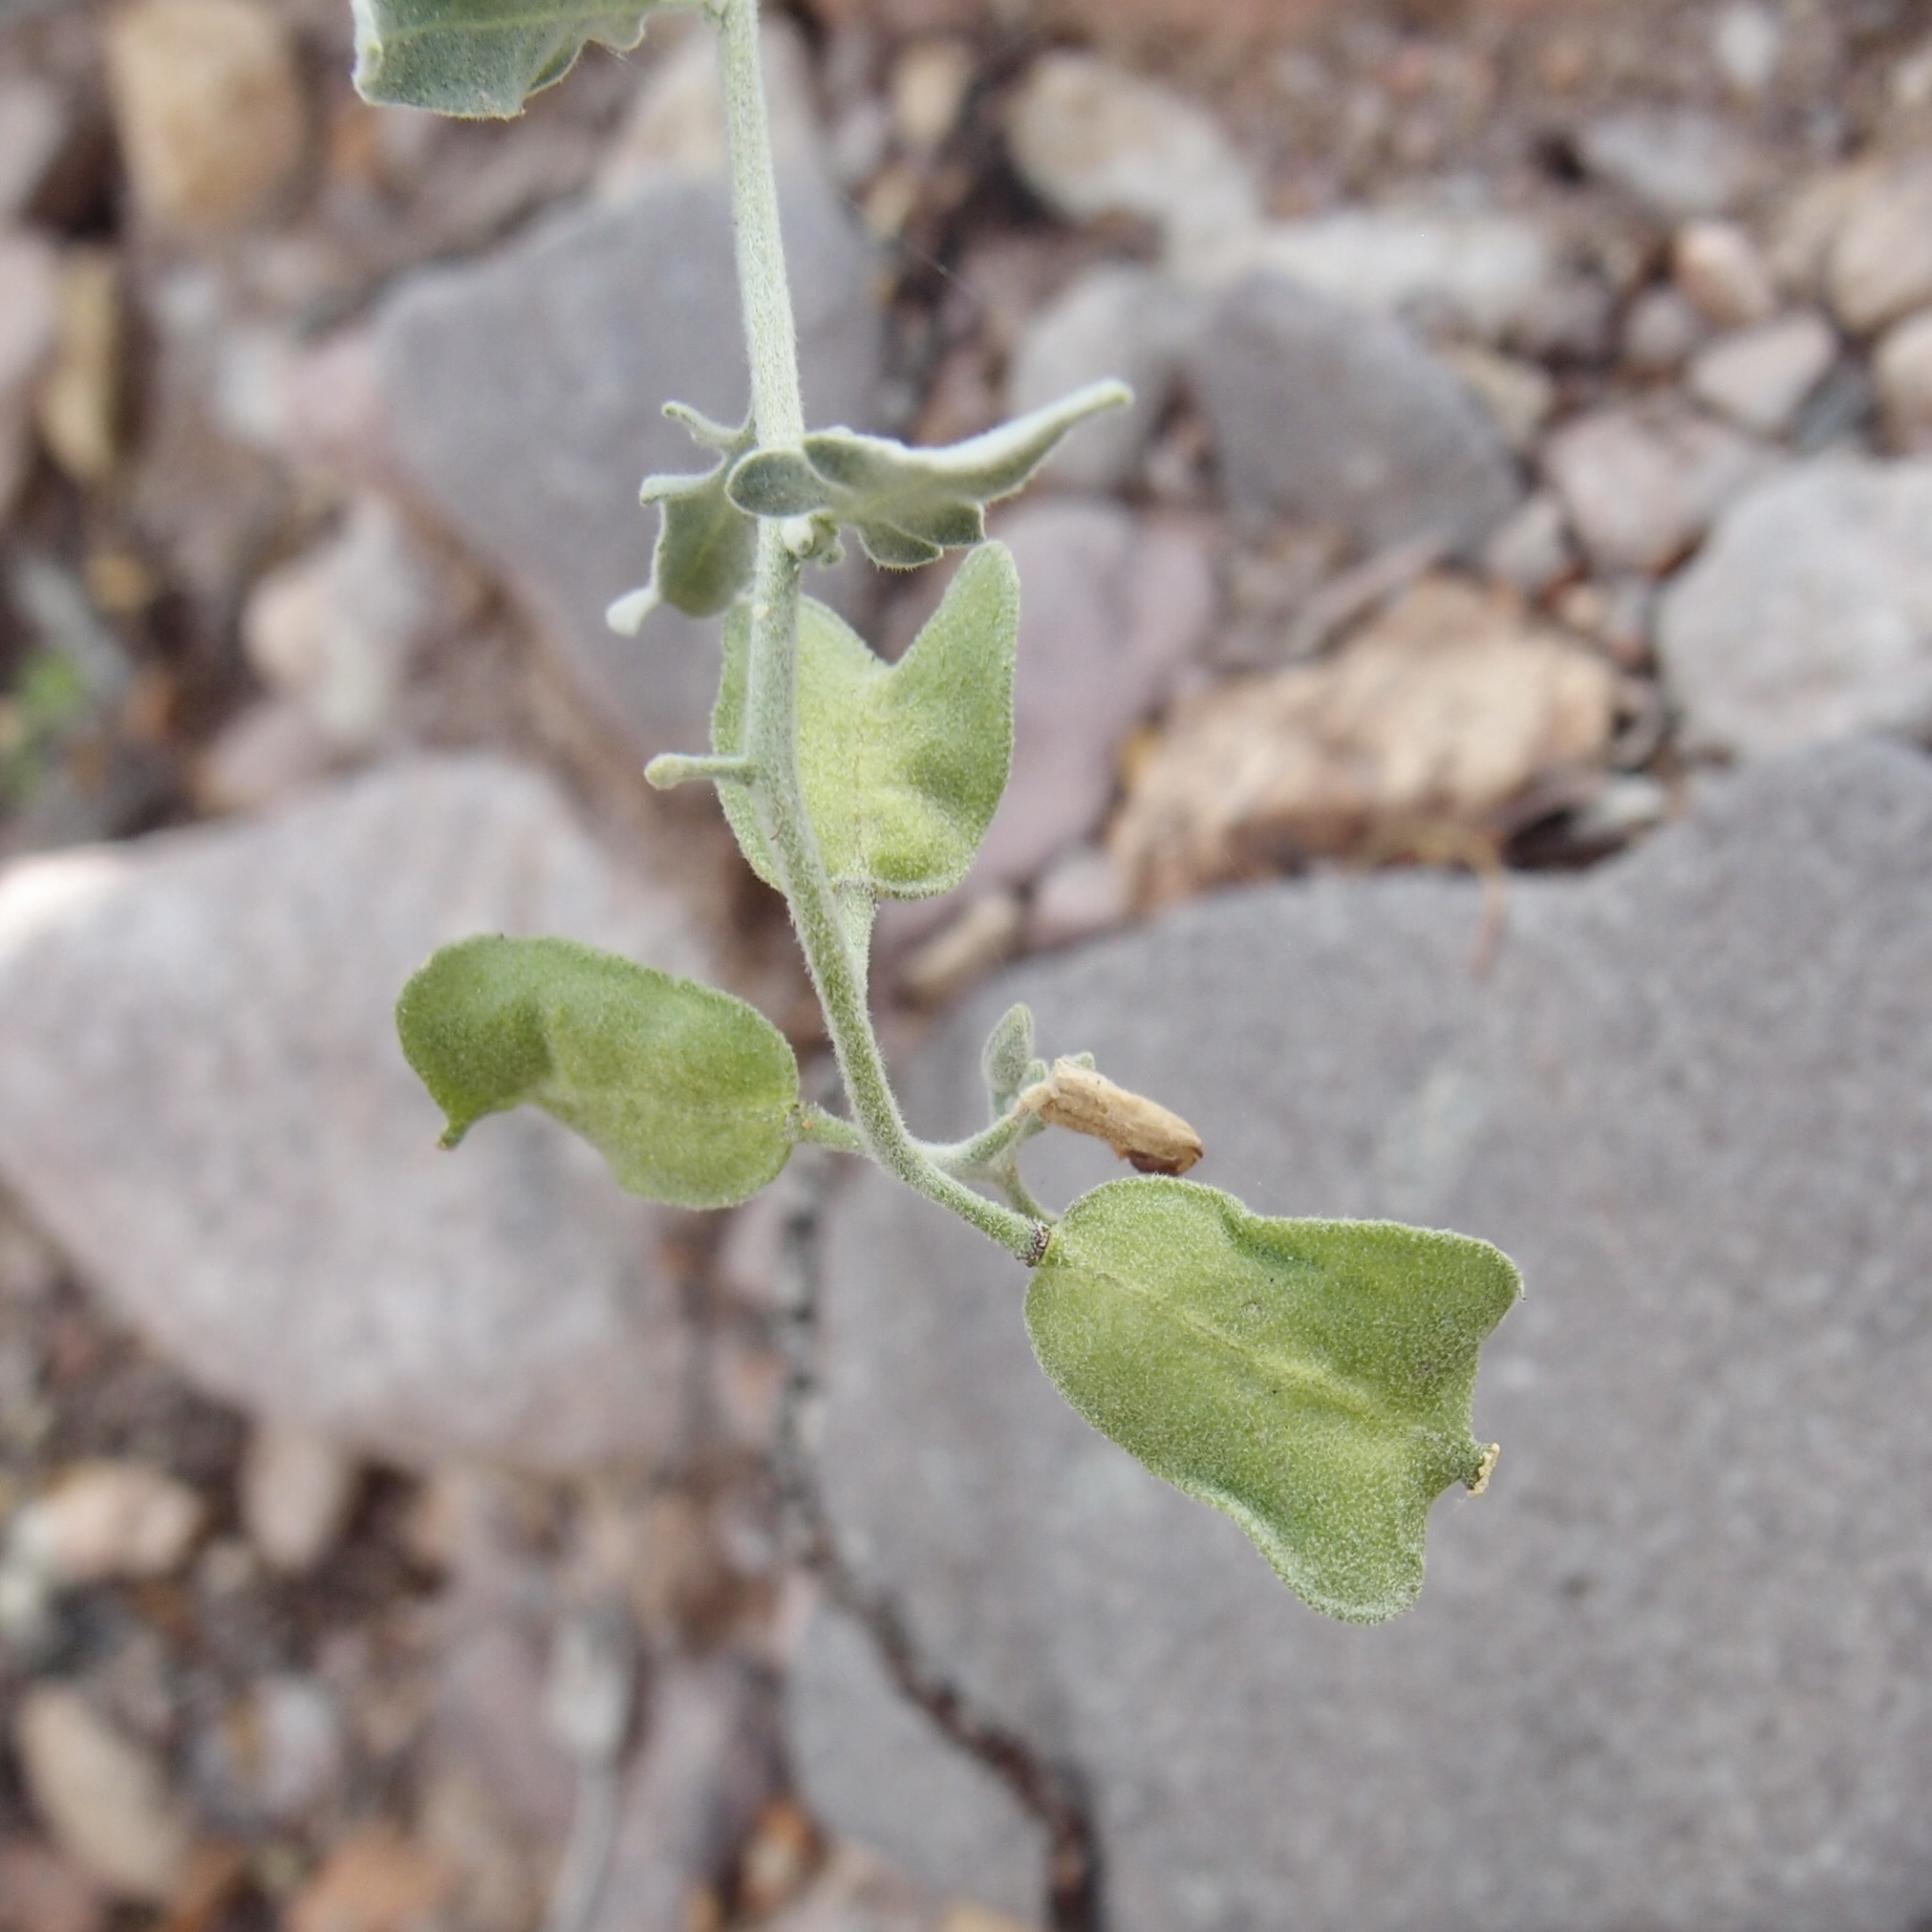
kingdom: Plantae
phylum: Tracheophyta
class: Magnoliopsida
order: Brassicales
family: Brassicaceae
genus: Lyrocarpa
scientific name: Lyrocarpa coulteri
